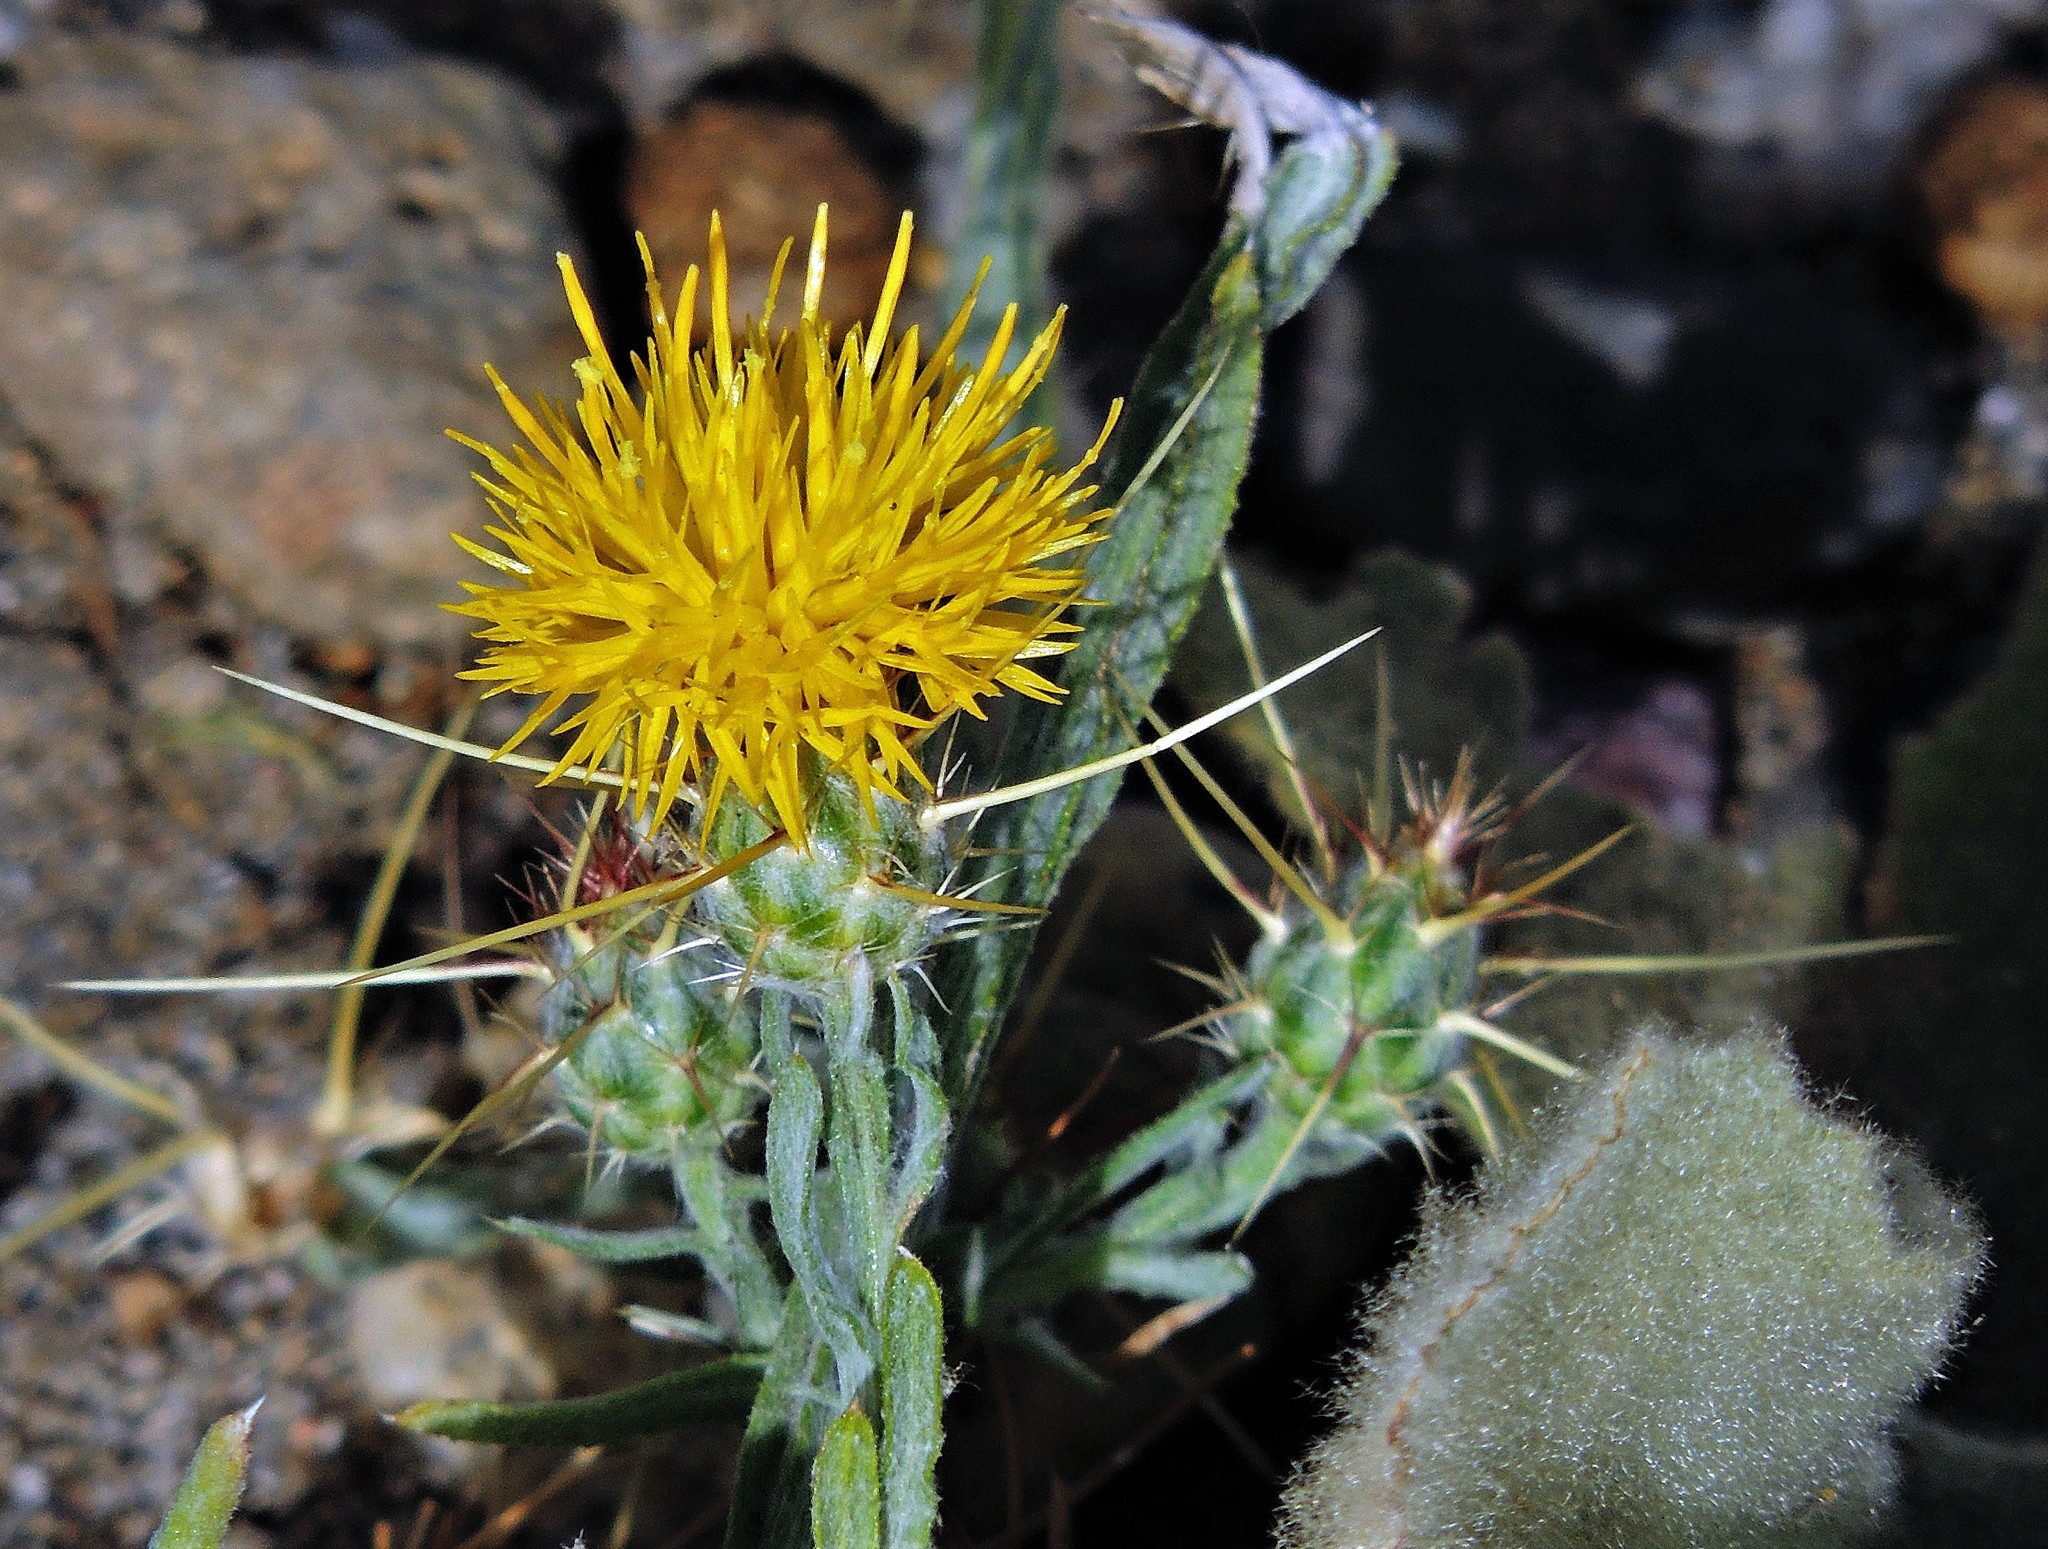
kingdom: Plantae
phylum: Tracheophyta
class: Magnoliopsida
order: Asterales
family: Asteraceae
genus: Centaurea
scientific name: Centaurea solstitialis
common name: Yellow star-thistle
